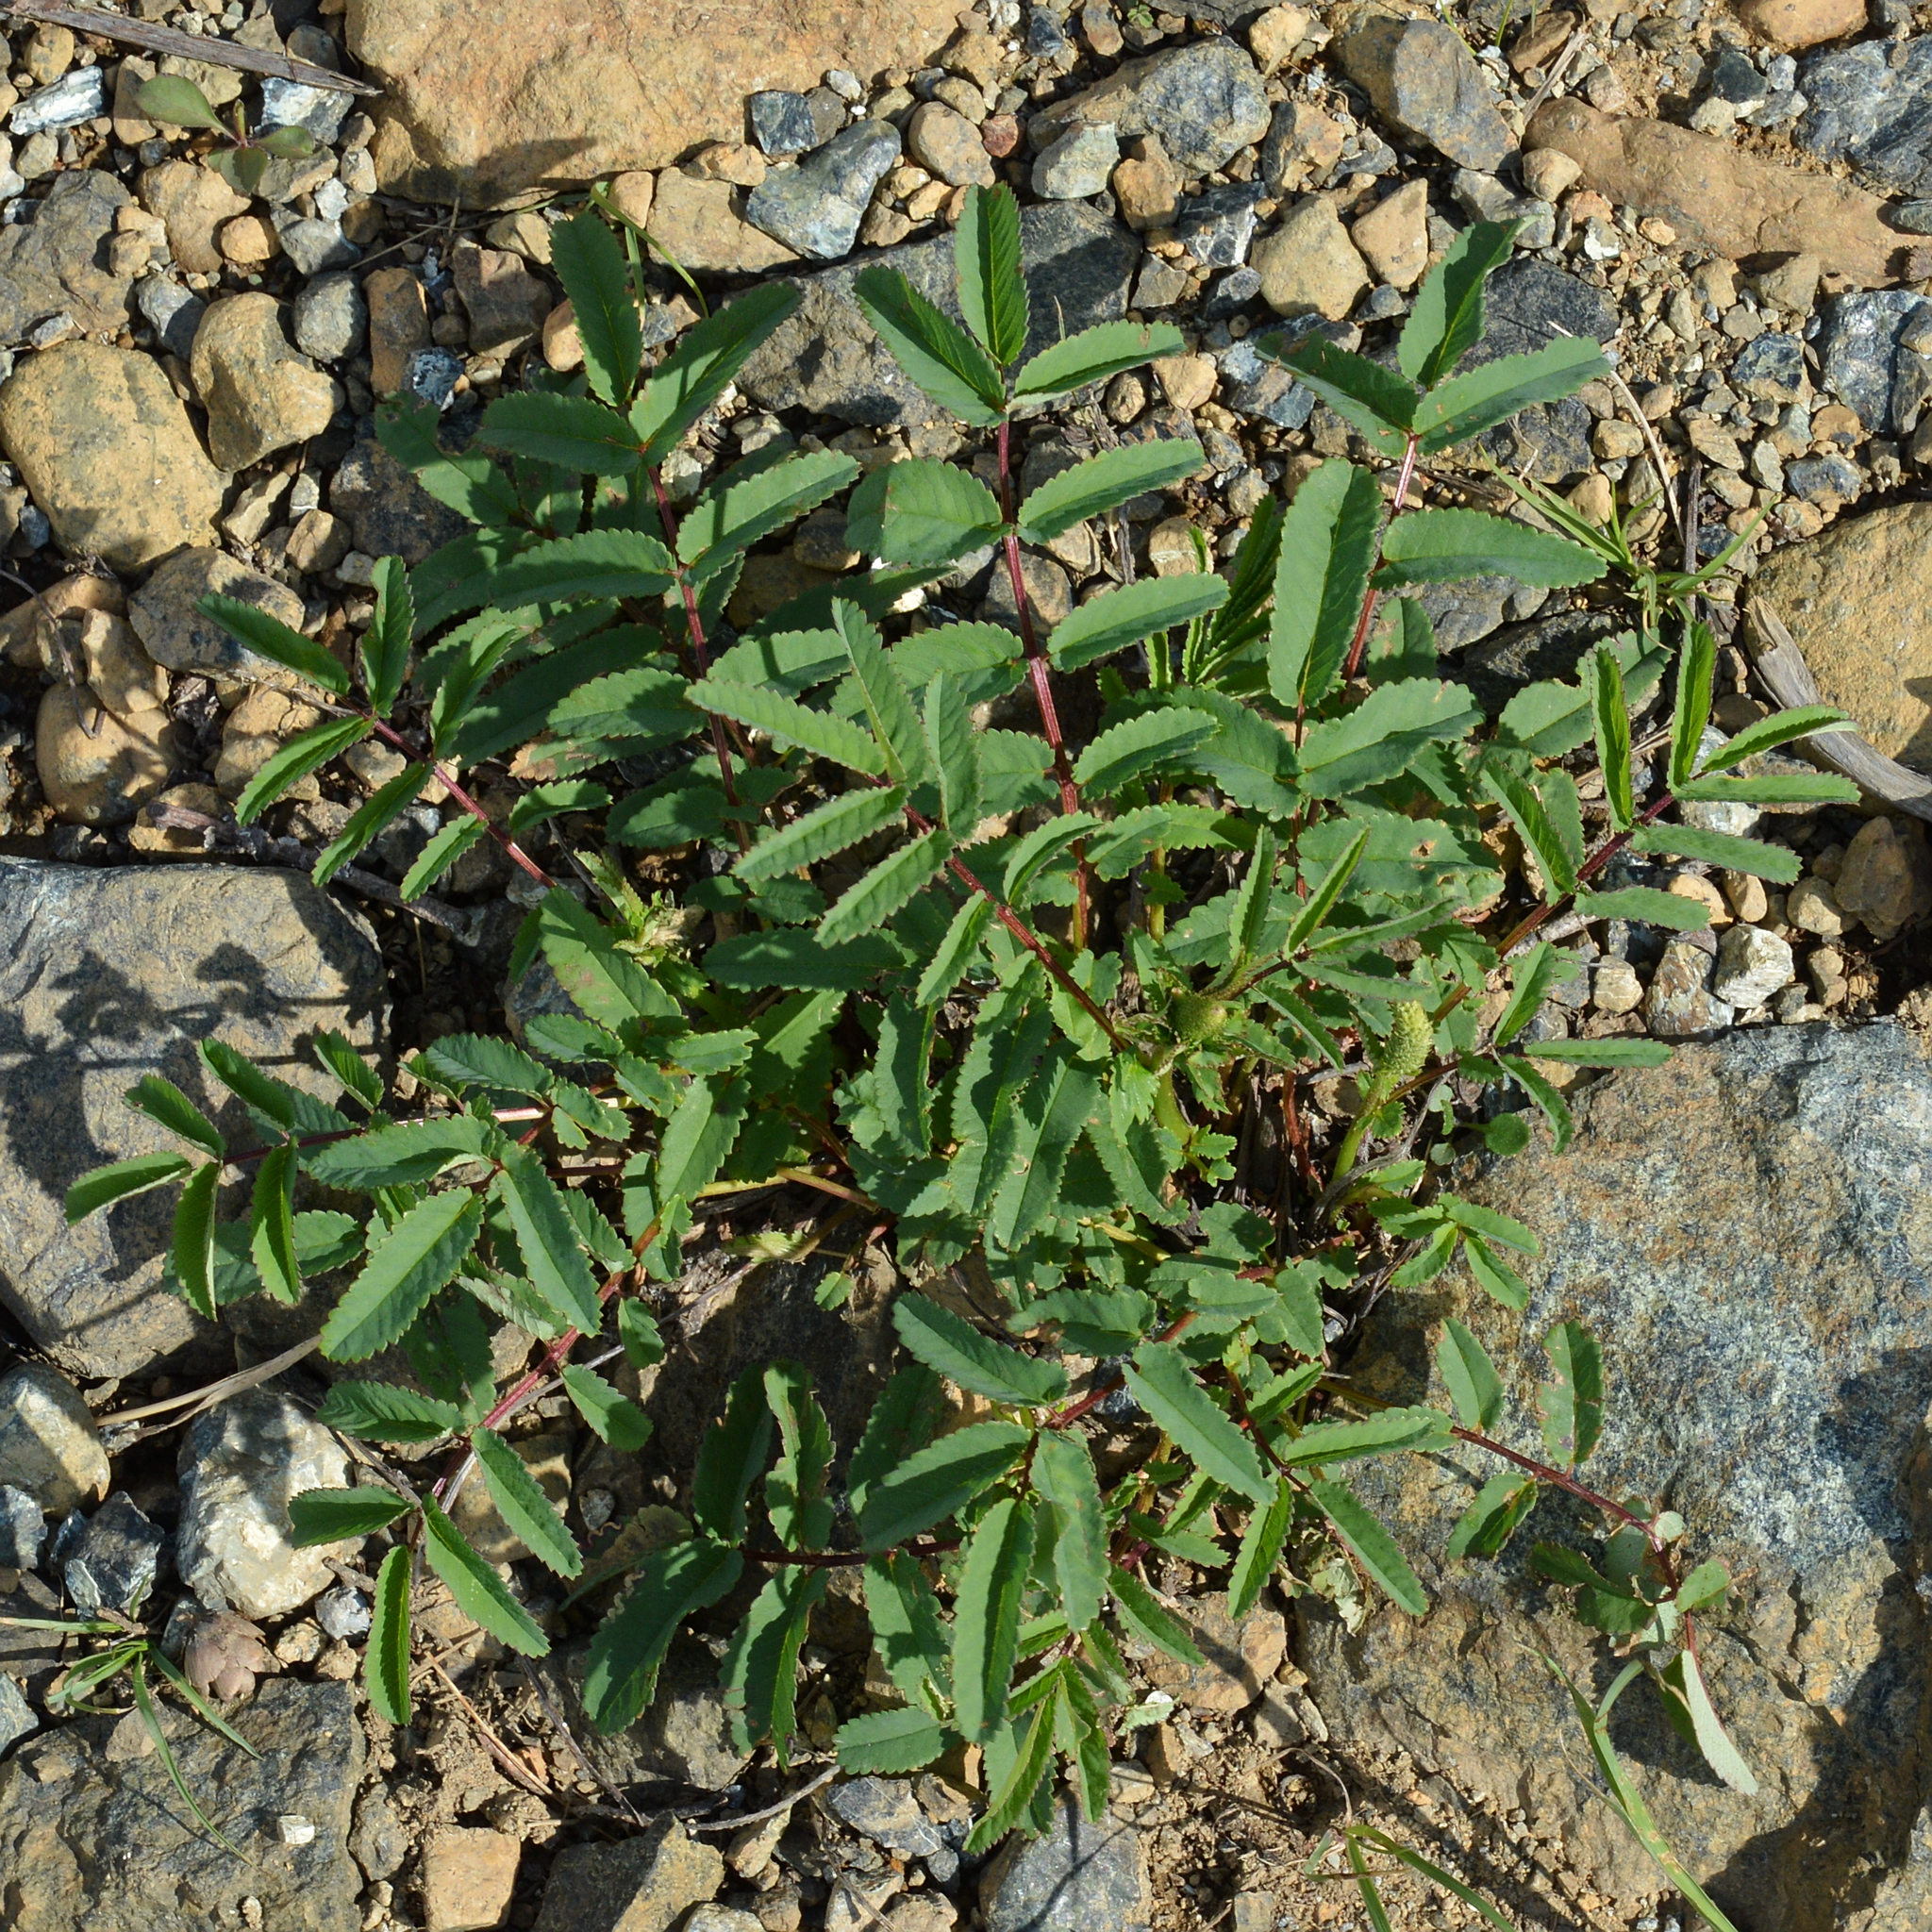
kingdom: Plantae
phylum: Tracheophyta
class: Magnoliopsida
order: Rosales
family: Rosaceae
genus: Sanguisorba
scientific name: Sanguisorba canadensis
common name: White burnet
